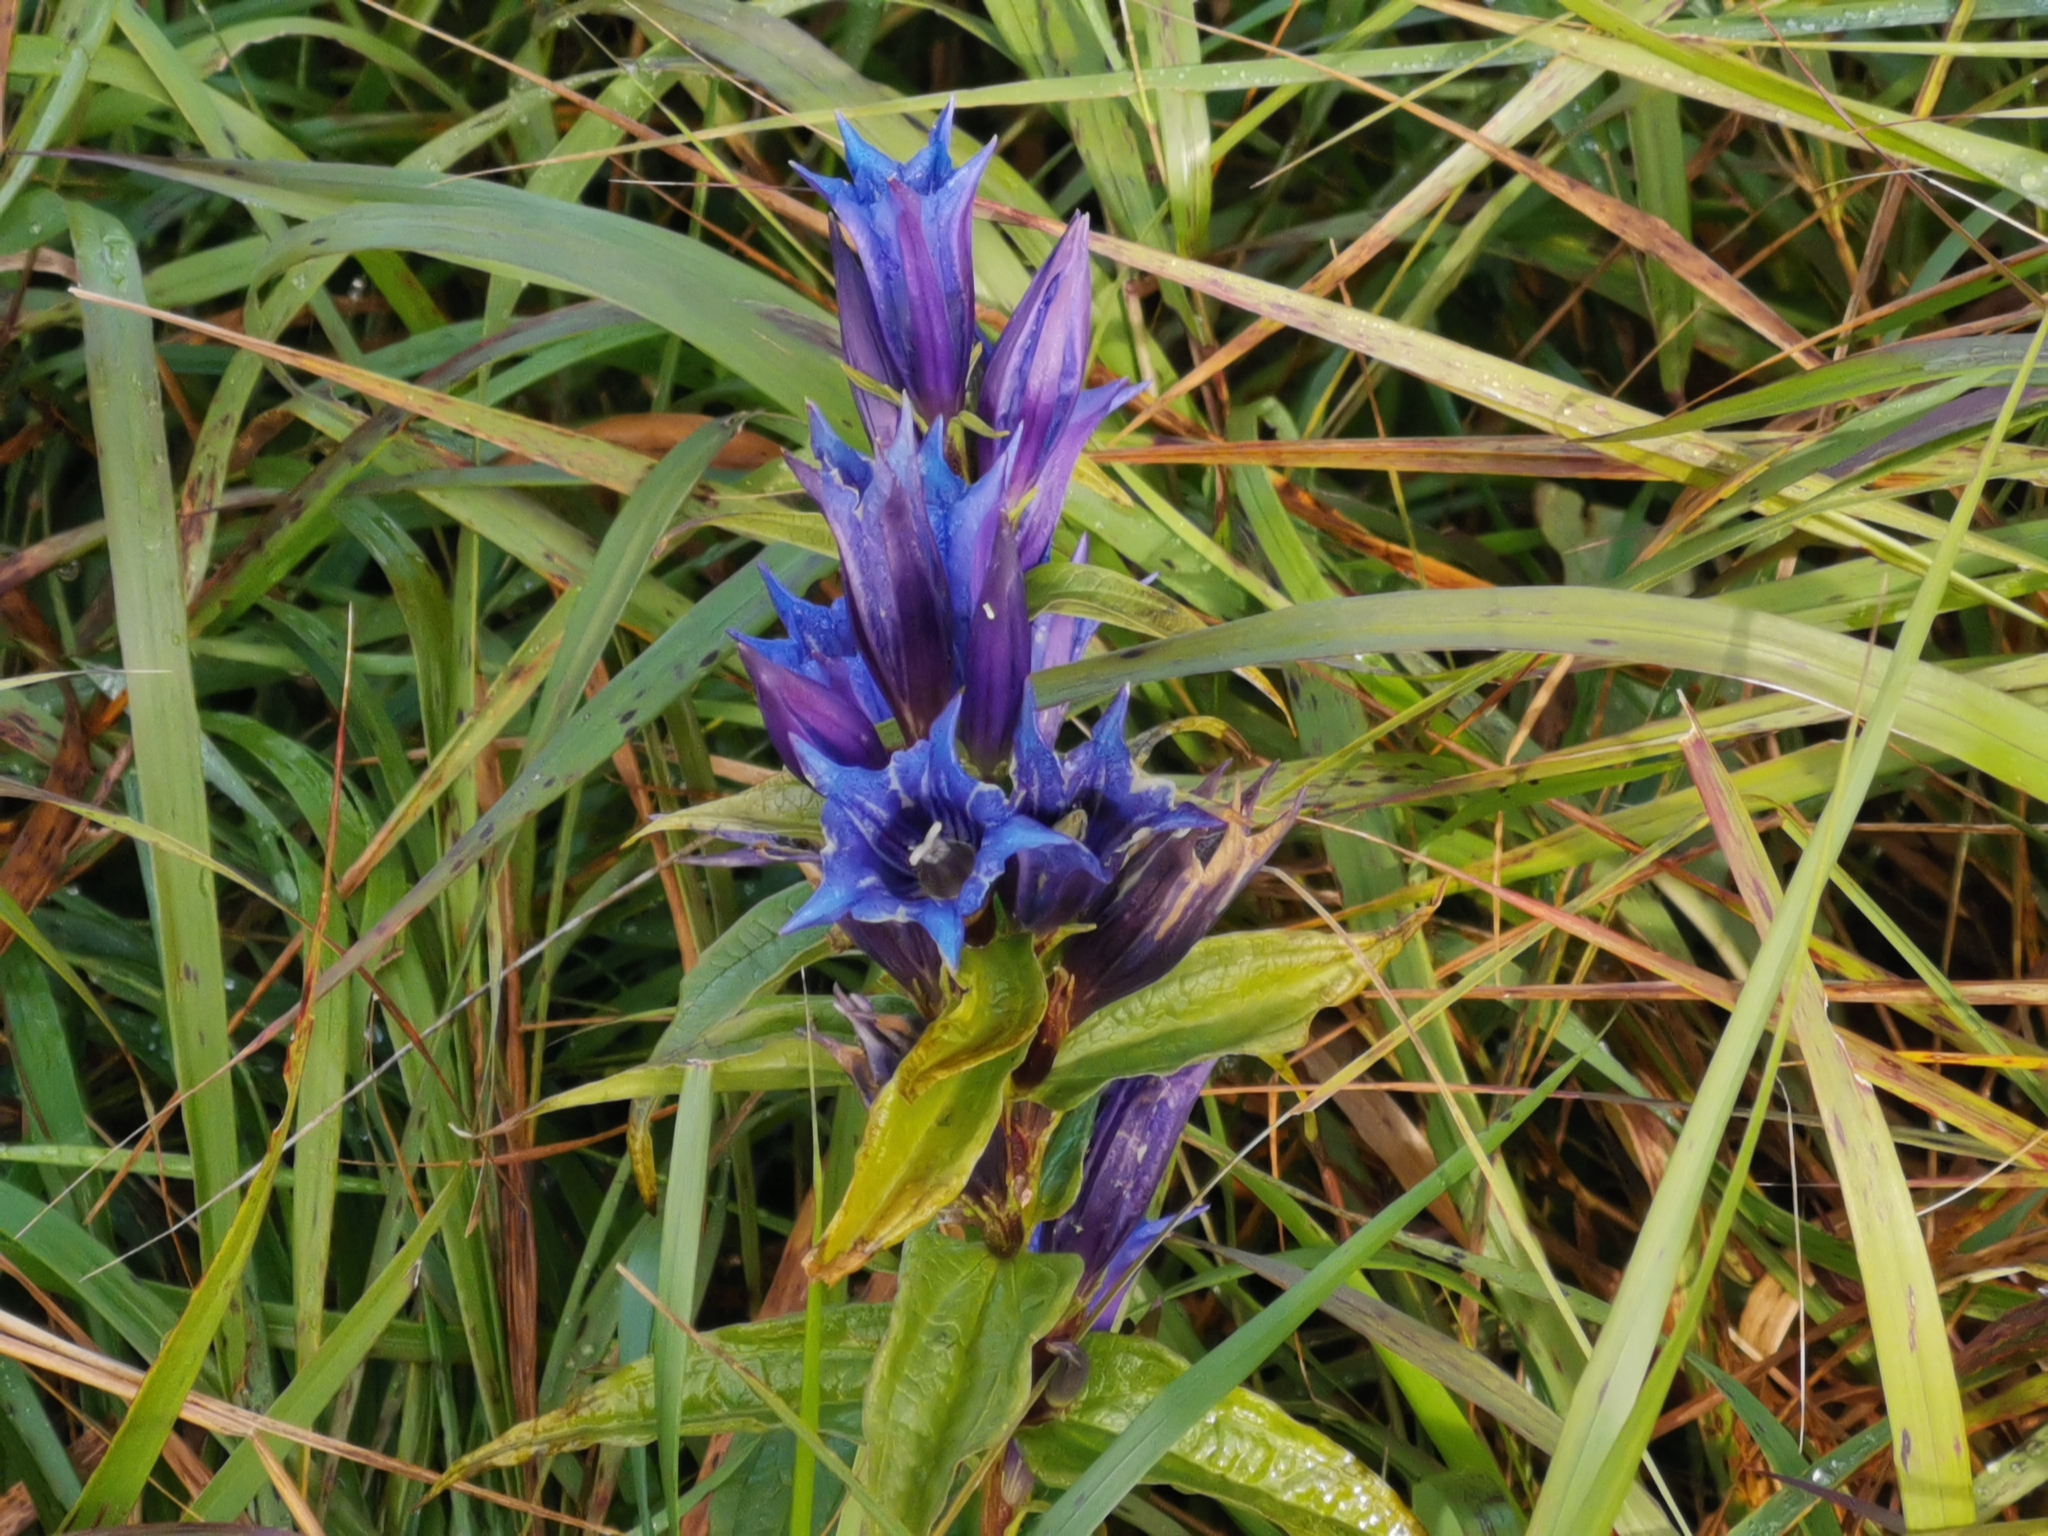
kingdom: Plantae
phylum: Tracheophyta
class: Magnoliopsida
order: Gentianales
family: Gentianaceae
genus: Gentiana
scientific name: Gentiana asclepiadea
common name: Willow gentian
